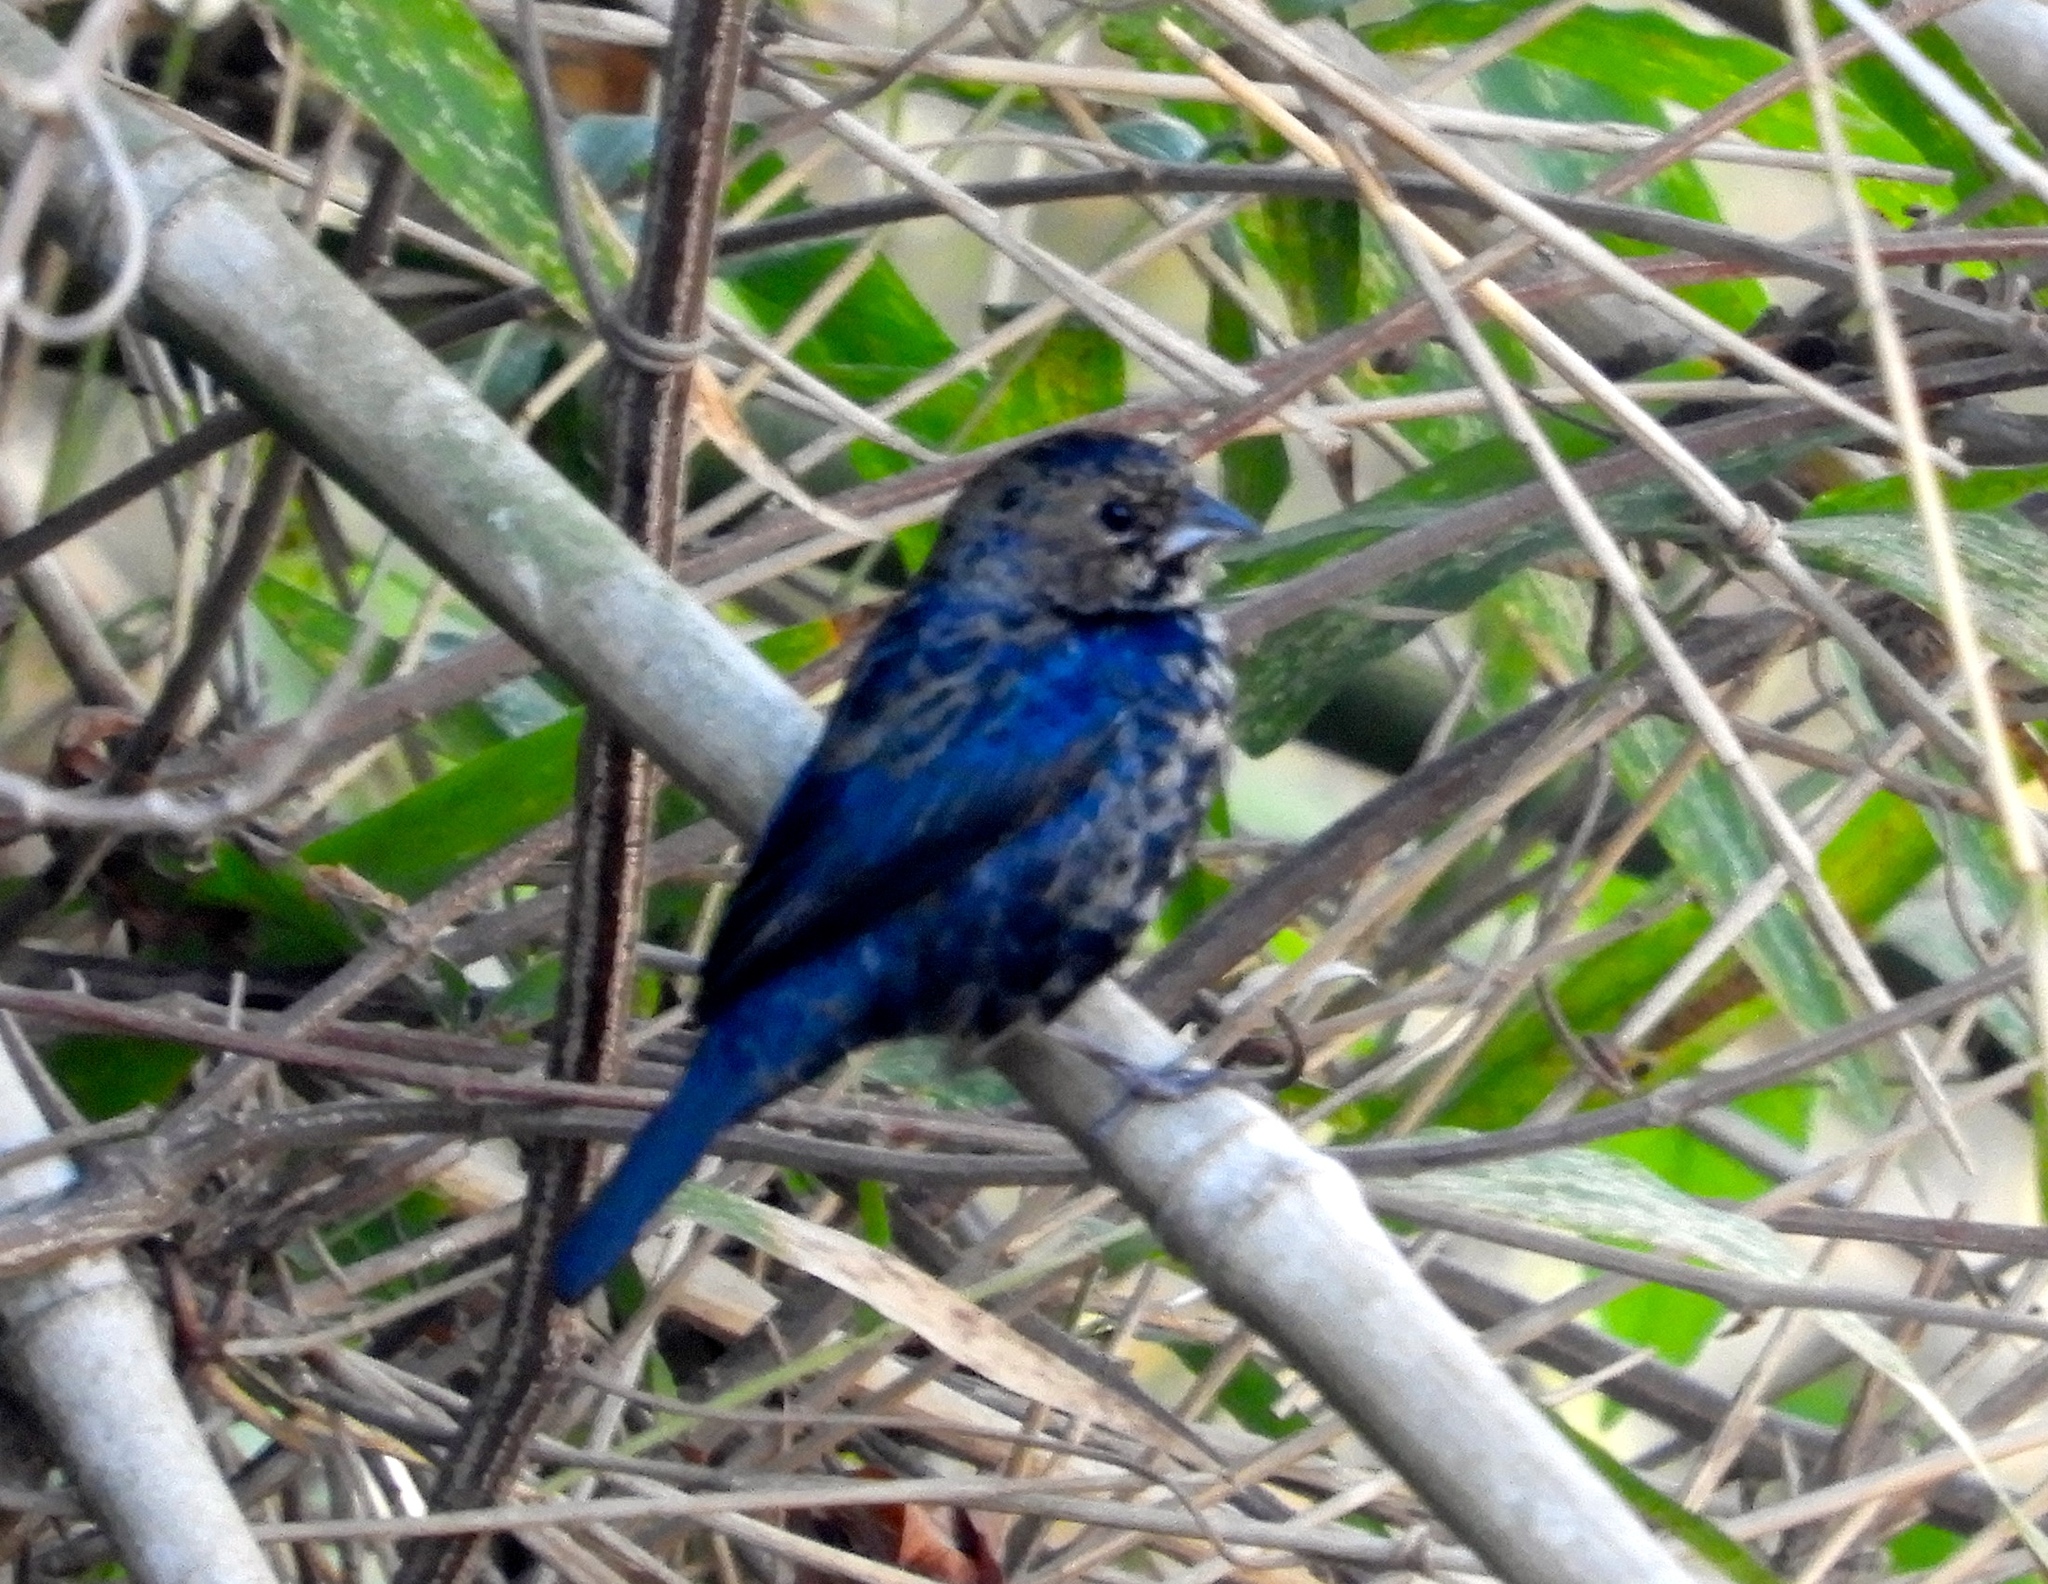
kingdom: Animalia
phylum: Chordata
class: Aves
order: Passeriformes
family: Thraupidae
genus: Volatinia
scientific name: Volatinia jacarina
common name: Blue-black grassquit
